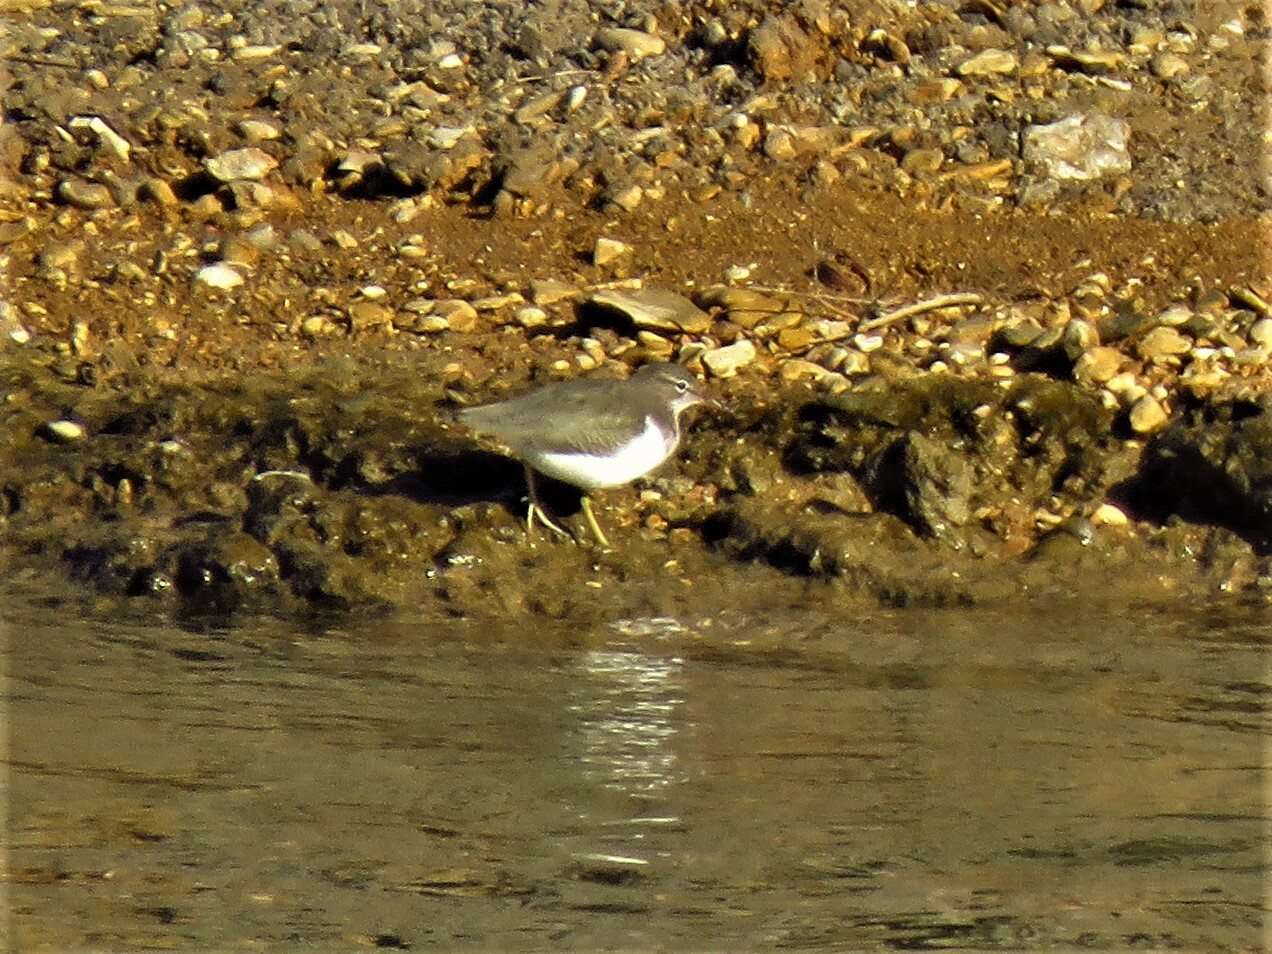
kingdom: Animalia
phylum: Chordata
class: Aves
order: Charadriiformes
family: Scolopacidae
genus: Actitis
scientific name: Actitis macularius
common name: Spotted sandpiper
